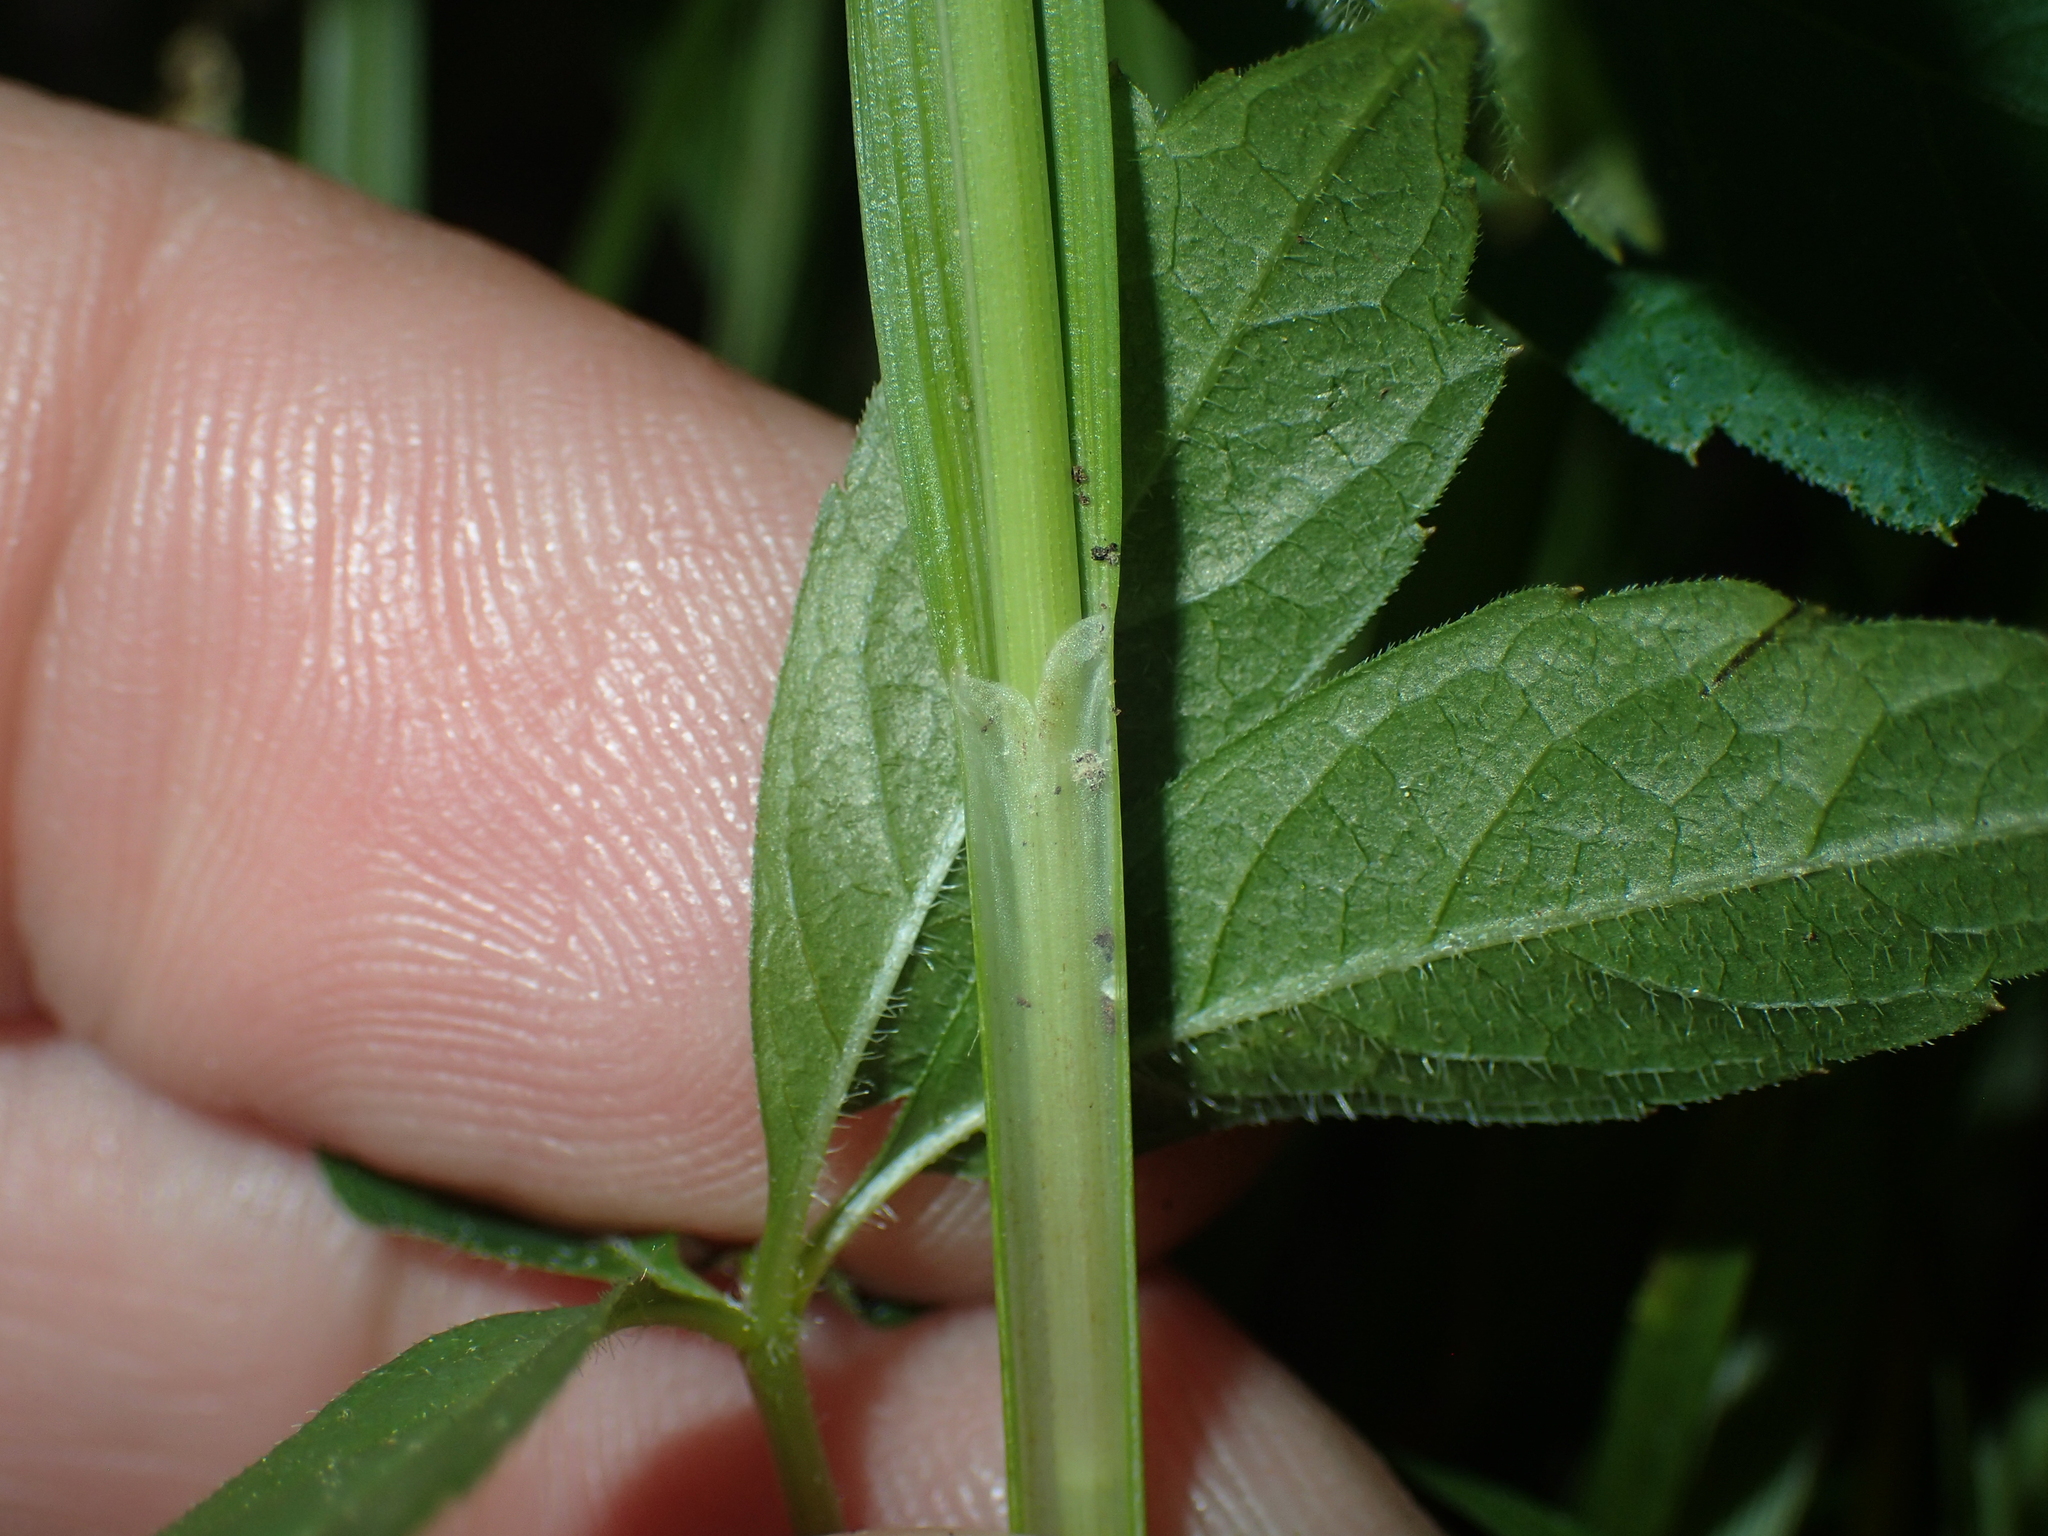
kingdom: Plantae
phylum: Tracheophyta
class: Liliopsida
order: Poales
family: Cyperaceae
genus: Carex
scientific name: Carex gracillima
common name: Graceful sedge
